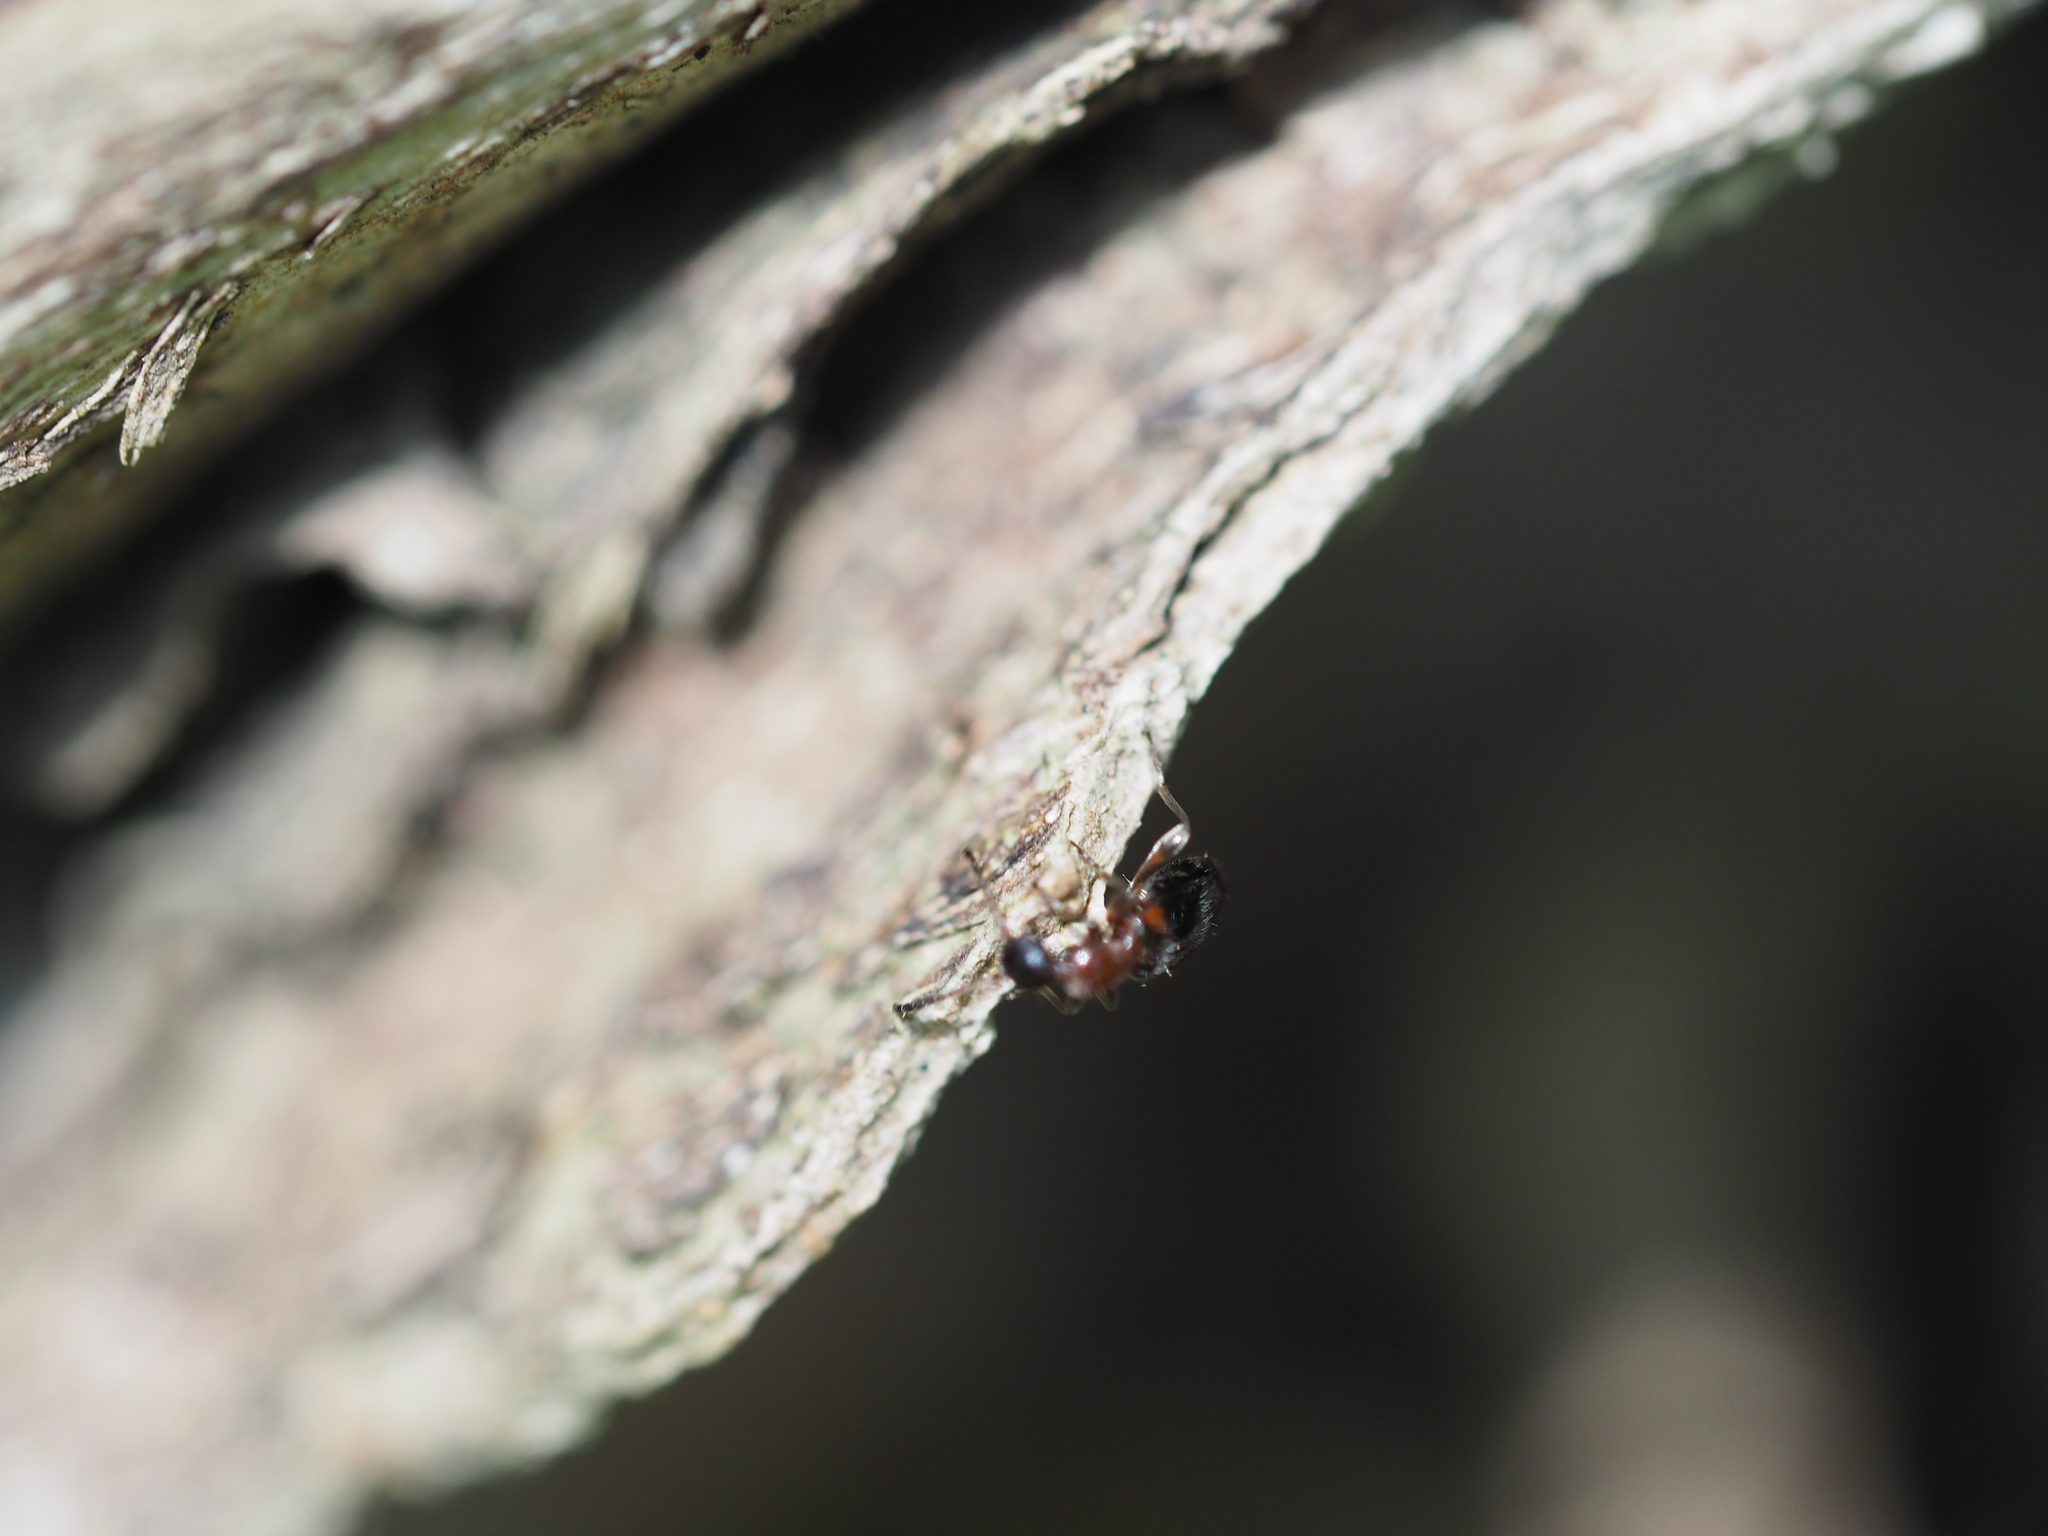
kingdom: Animalia
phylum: Arthropoda
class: Insecta
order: Coleoptera
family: Anthicidae
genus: Anthelephila
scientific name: Anthelephila pedestris
